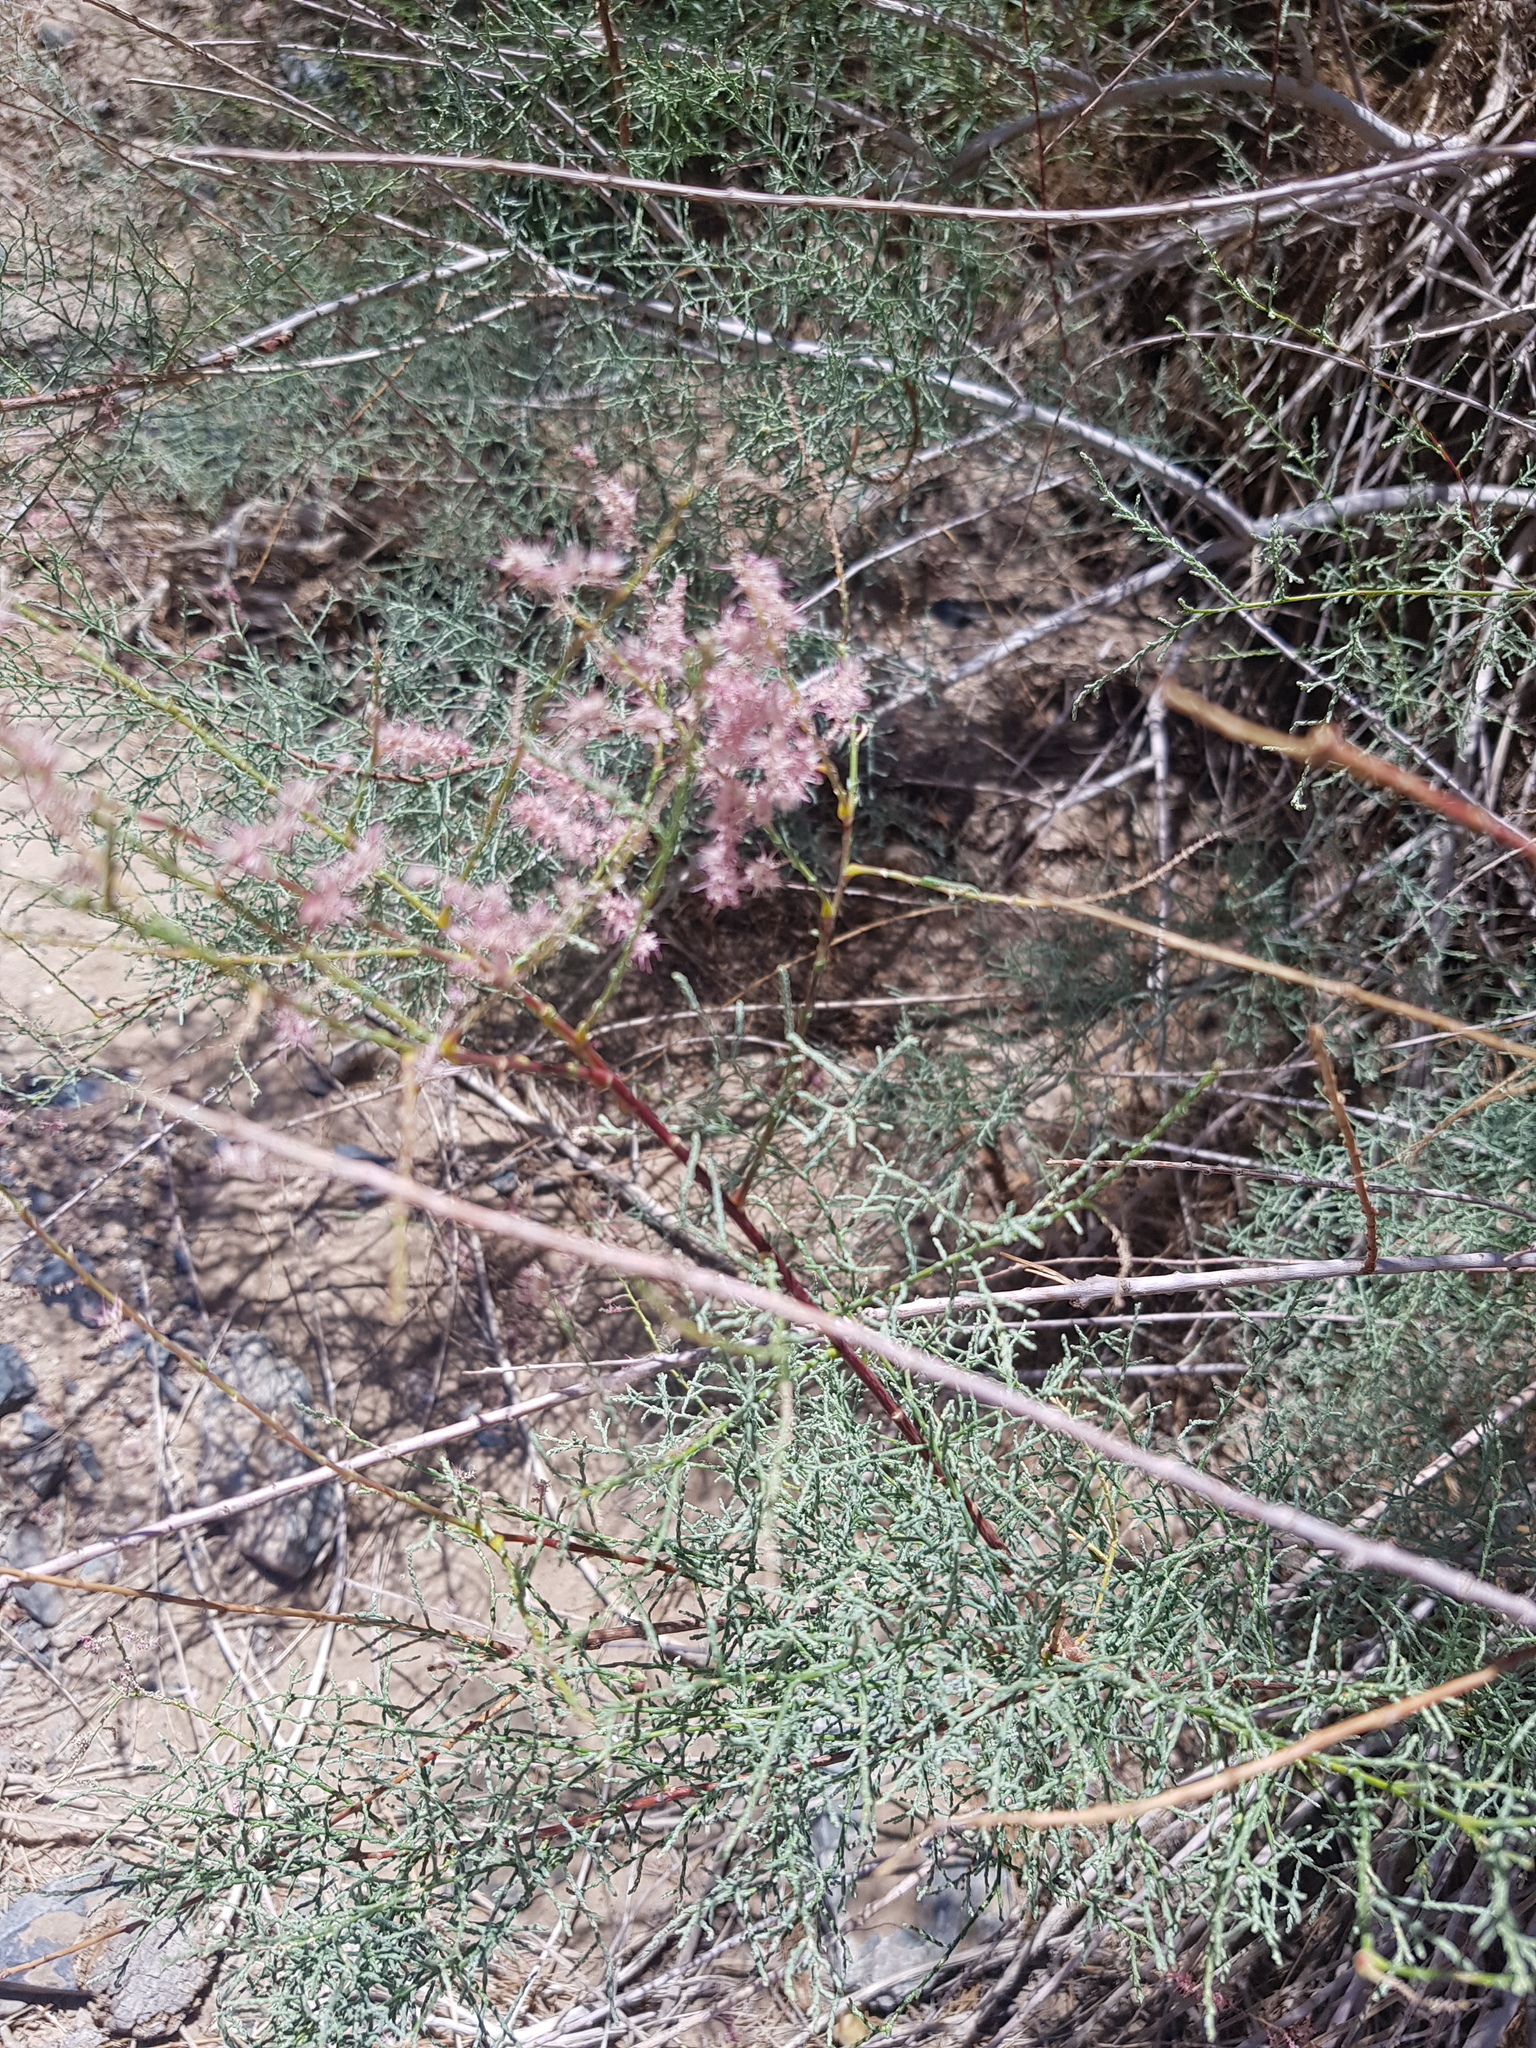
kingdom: Plantae
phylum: Tracheophyta
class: Magnoliopsida
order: Caryophyllales
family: Tamaricaceae
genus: Tamarix
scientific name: Tamarix arceuthoides
